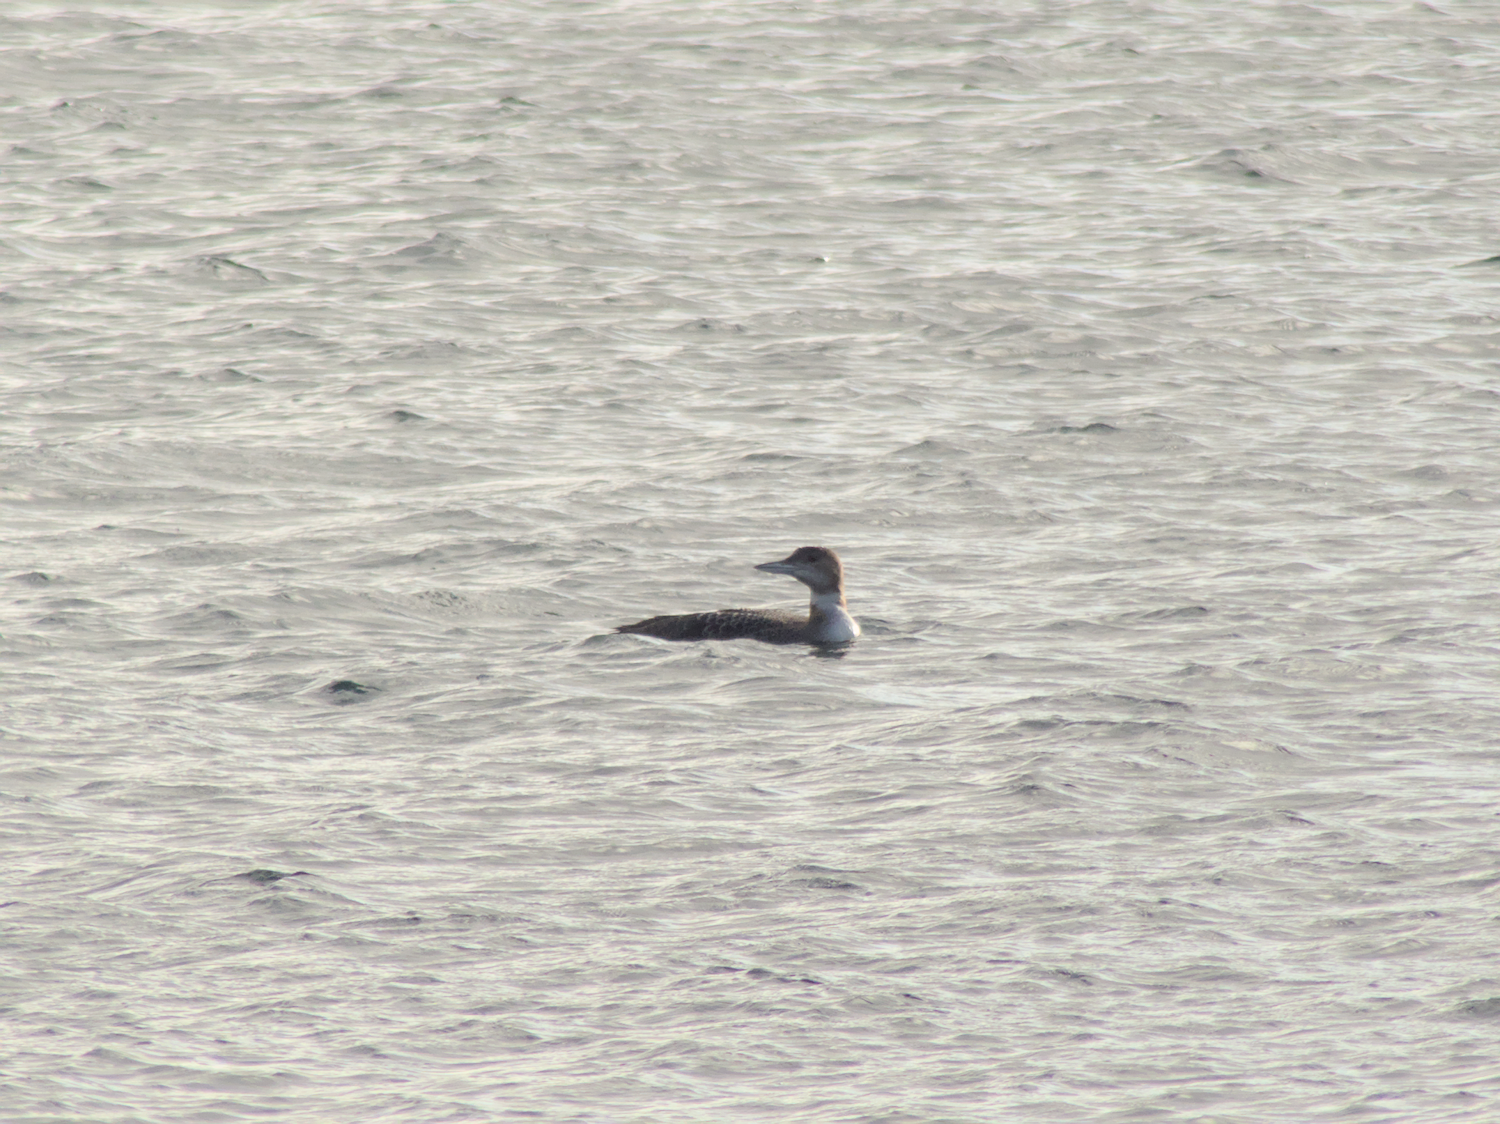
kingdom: Animalia
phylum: Chordata
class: Aves
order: Gaviiformes
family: Gaviidae
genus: Gavia
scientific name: Gavia immer
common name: Common loon
